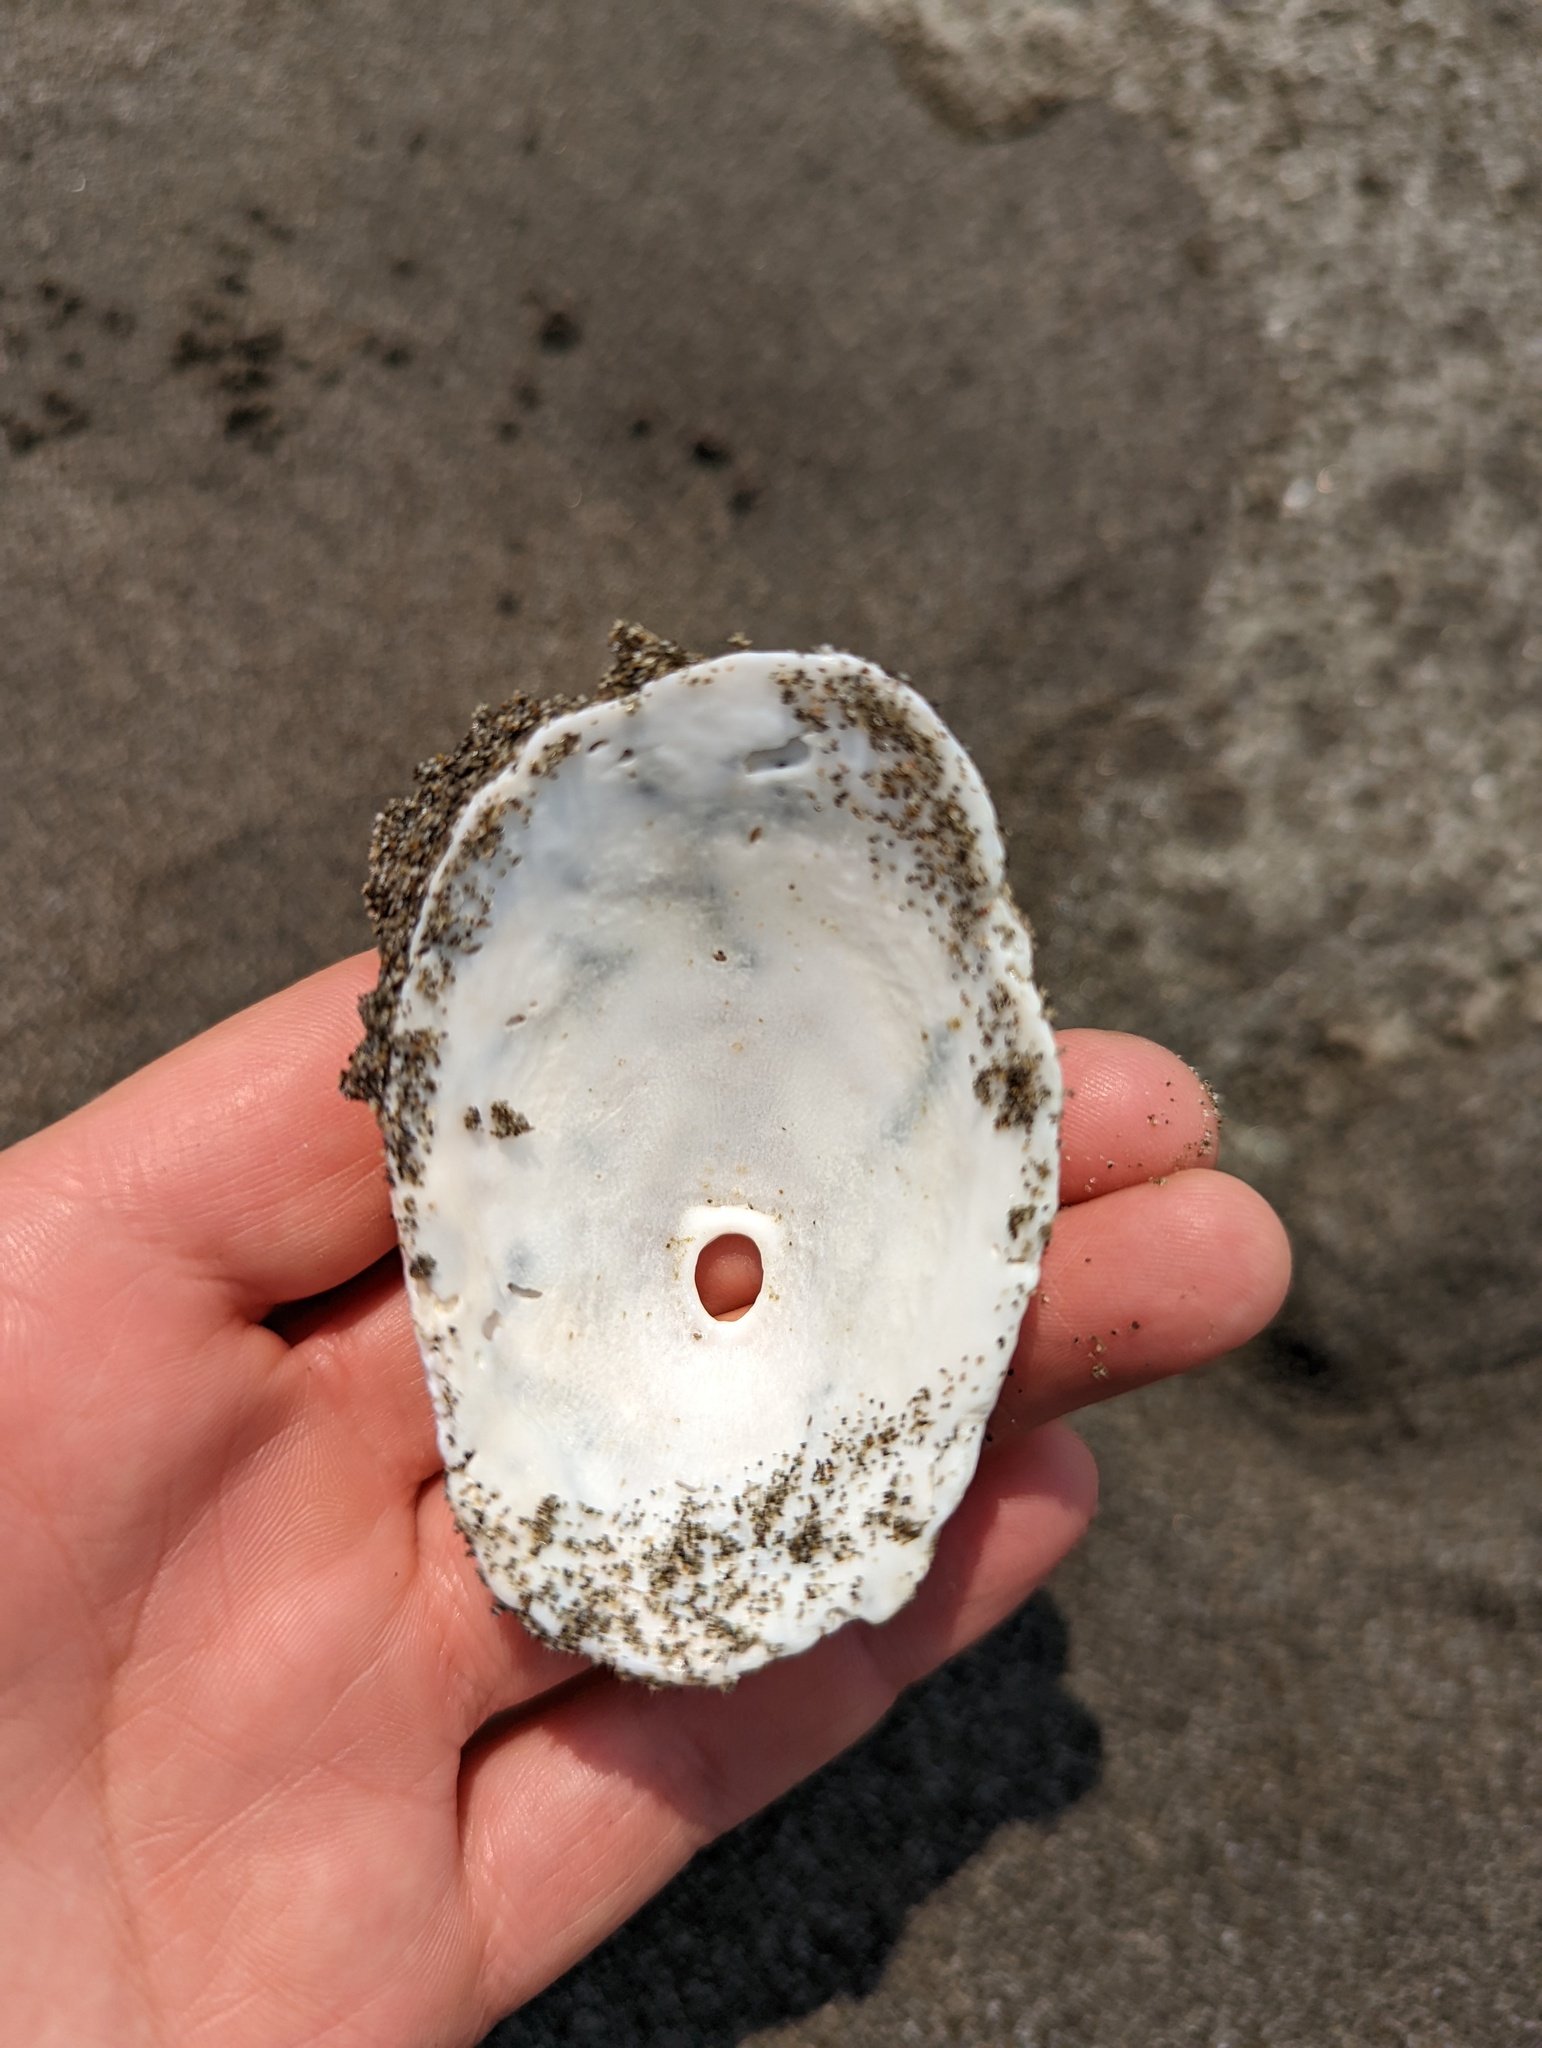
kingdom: Animalia
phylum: Mollusca
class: Gastropoda
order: Lepetellida
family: Fissurellidae
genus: Diodora
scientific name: Diodora aspera
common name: Rough keyhole limpet
